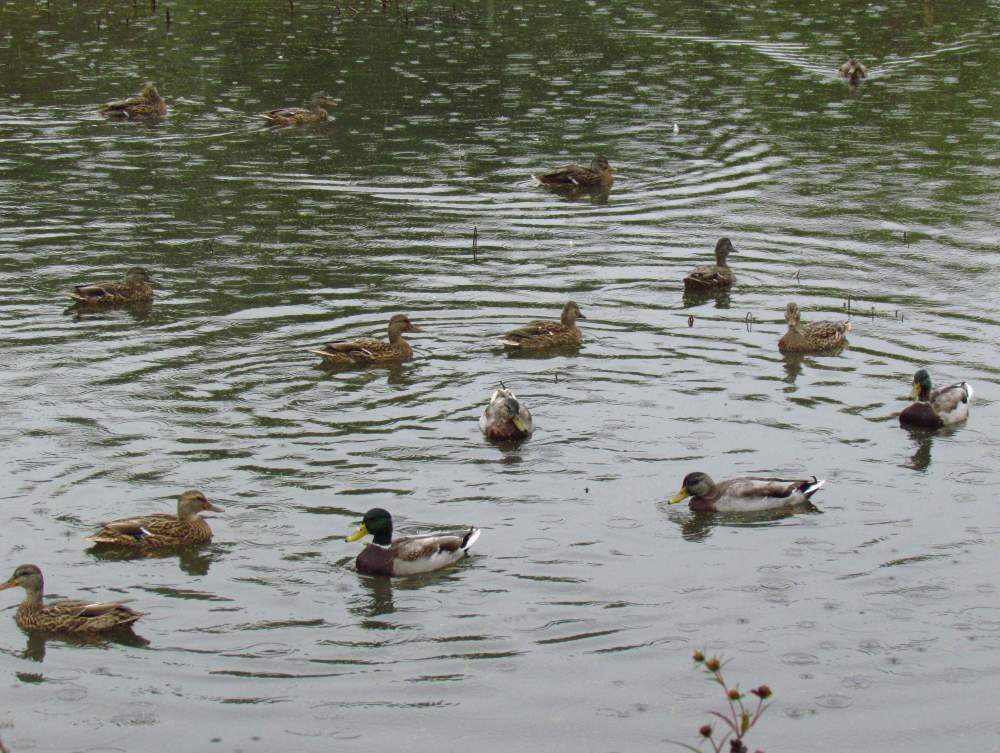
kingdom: Animalia
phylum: Chordata
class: Aves
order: Anseriformes
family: Anatidae
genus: Anas
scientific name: Anas platyrhynchos
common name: Mallard
